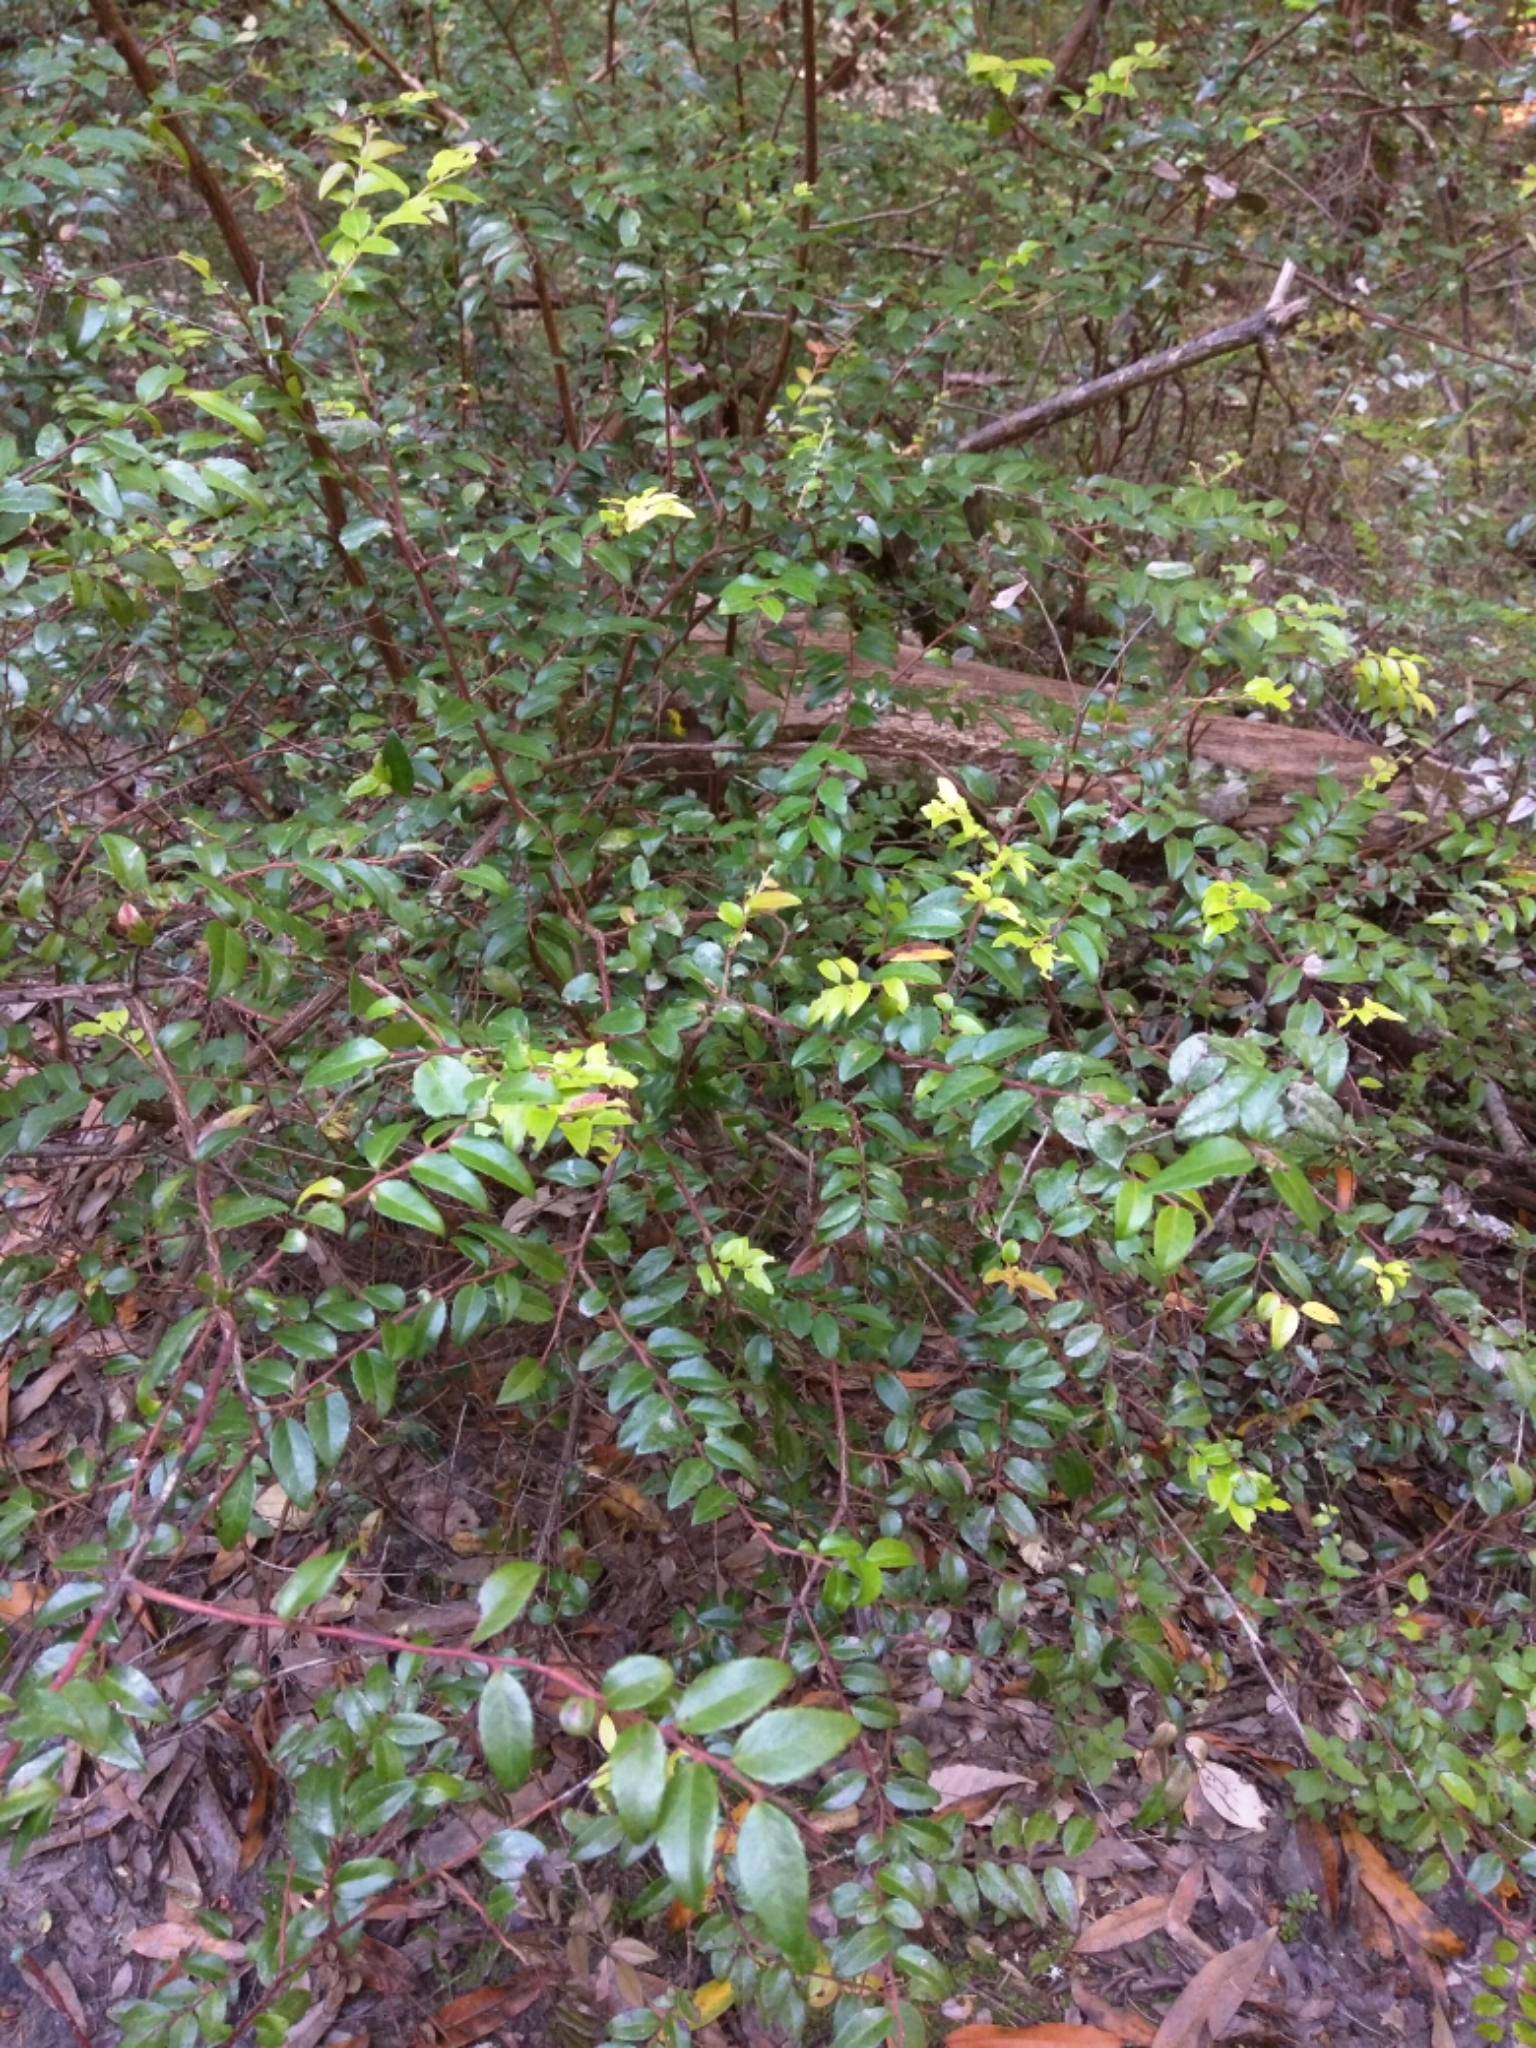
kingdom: Plantae
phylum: Tracheophyta
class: Magnoliopsida
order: Ericales
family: Ericaceae
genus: Vaccinium
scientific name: Vaccinium ovatum
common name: California-huckleberry
